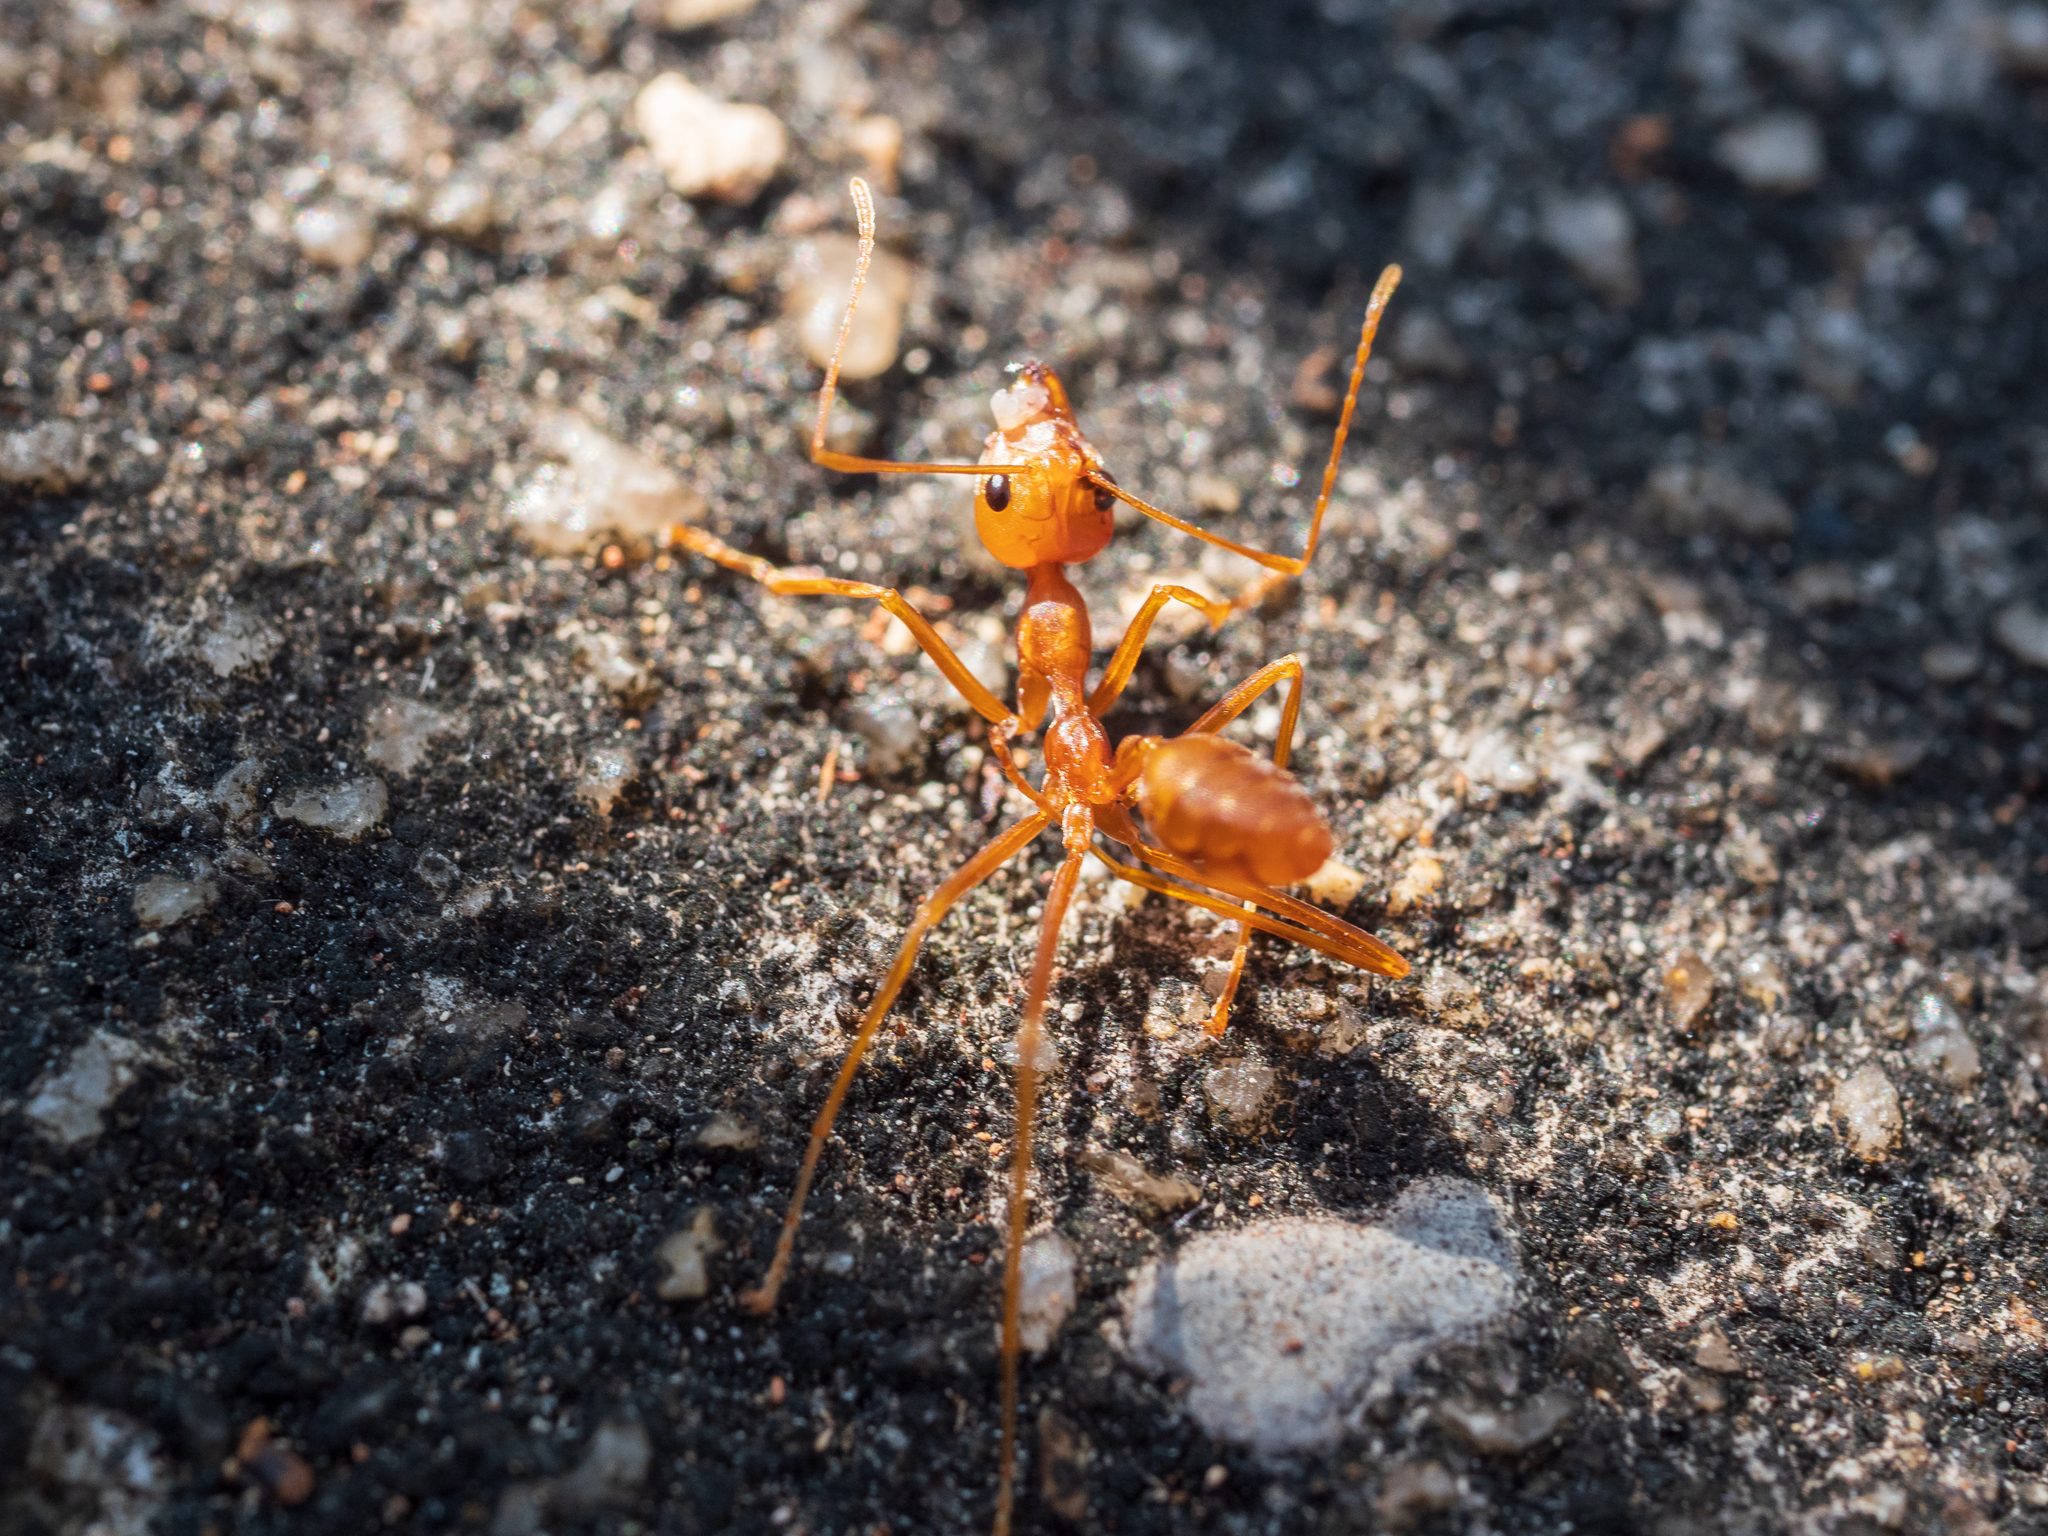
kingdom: Animalia
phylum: Arthropoda
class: Insecta
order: Hymenoptera
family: Formicidae
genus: Oecophylla
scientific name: Oecophylla smaragdina
